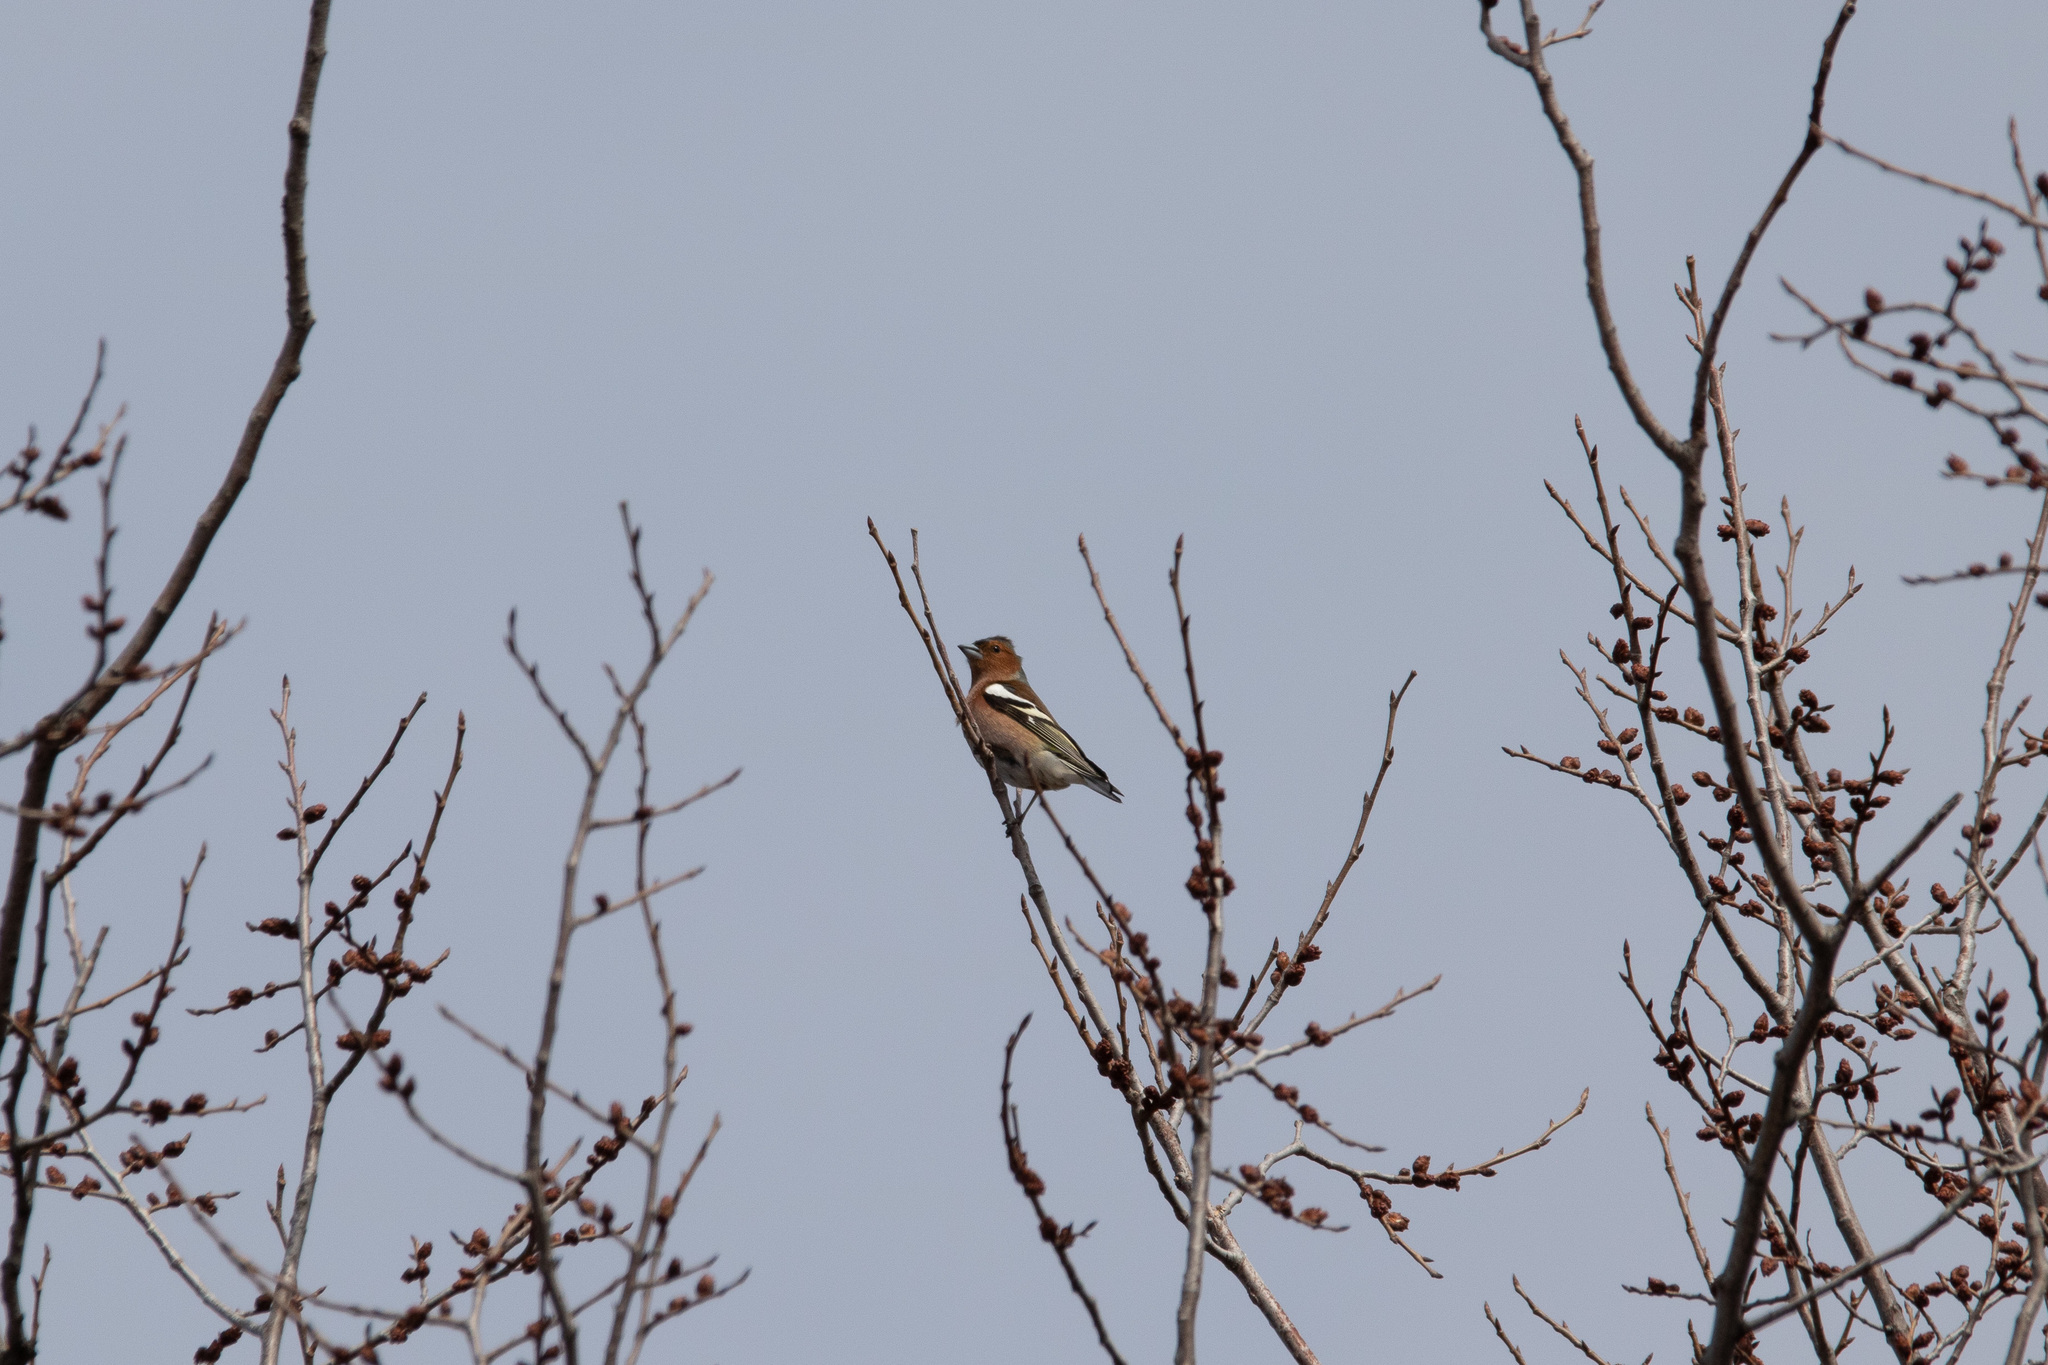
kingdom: Animalia
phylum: Chordata
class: Aves
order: Passeriformes
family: Fringillidae
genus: Fringilla
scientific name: Fringilla coelebs
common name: Common chaffinch
